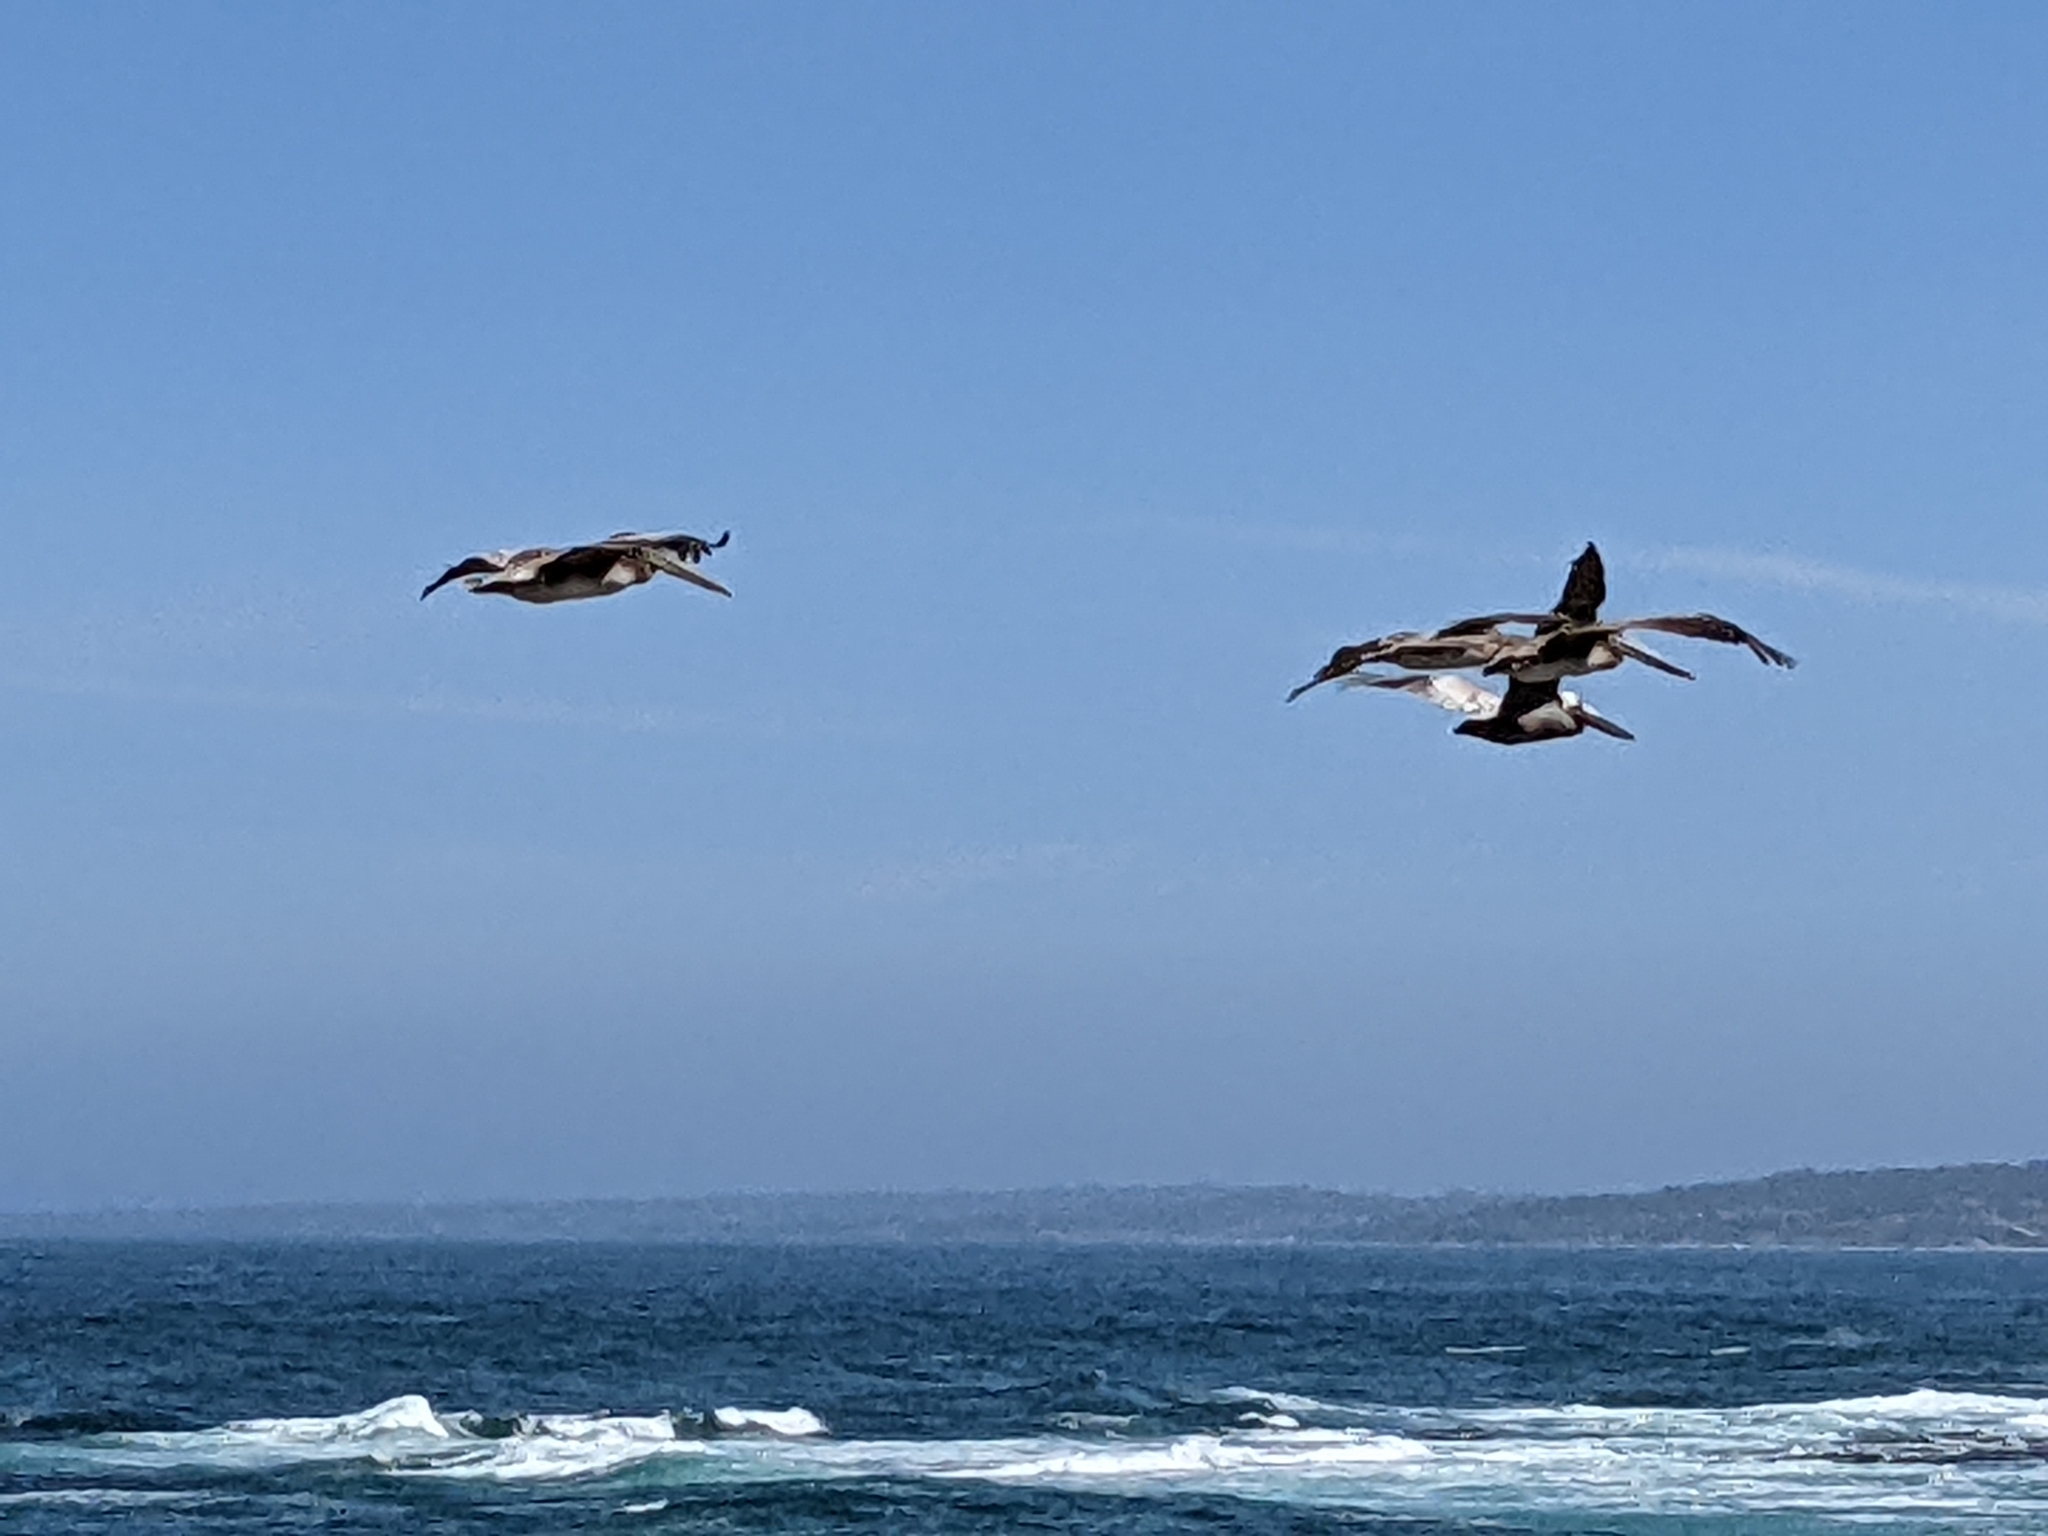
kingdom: Animalia
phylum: Chordata
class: Aves
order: Pelecaniformes
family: Pelecanidae
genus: Pelecanus
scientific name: Pelecanus occidentalis
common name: Brown pelican
